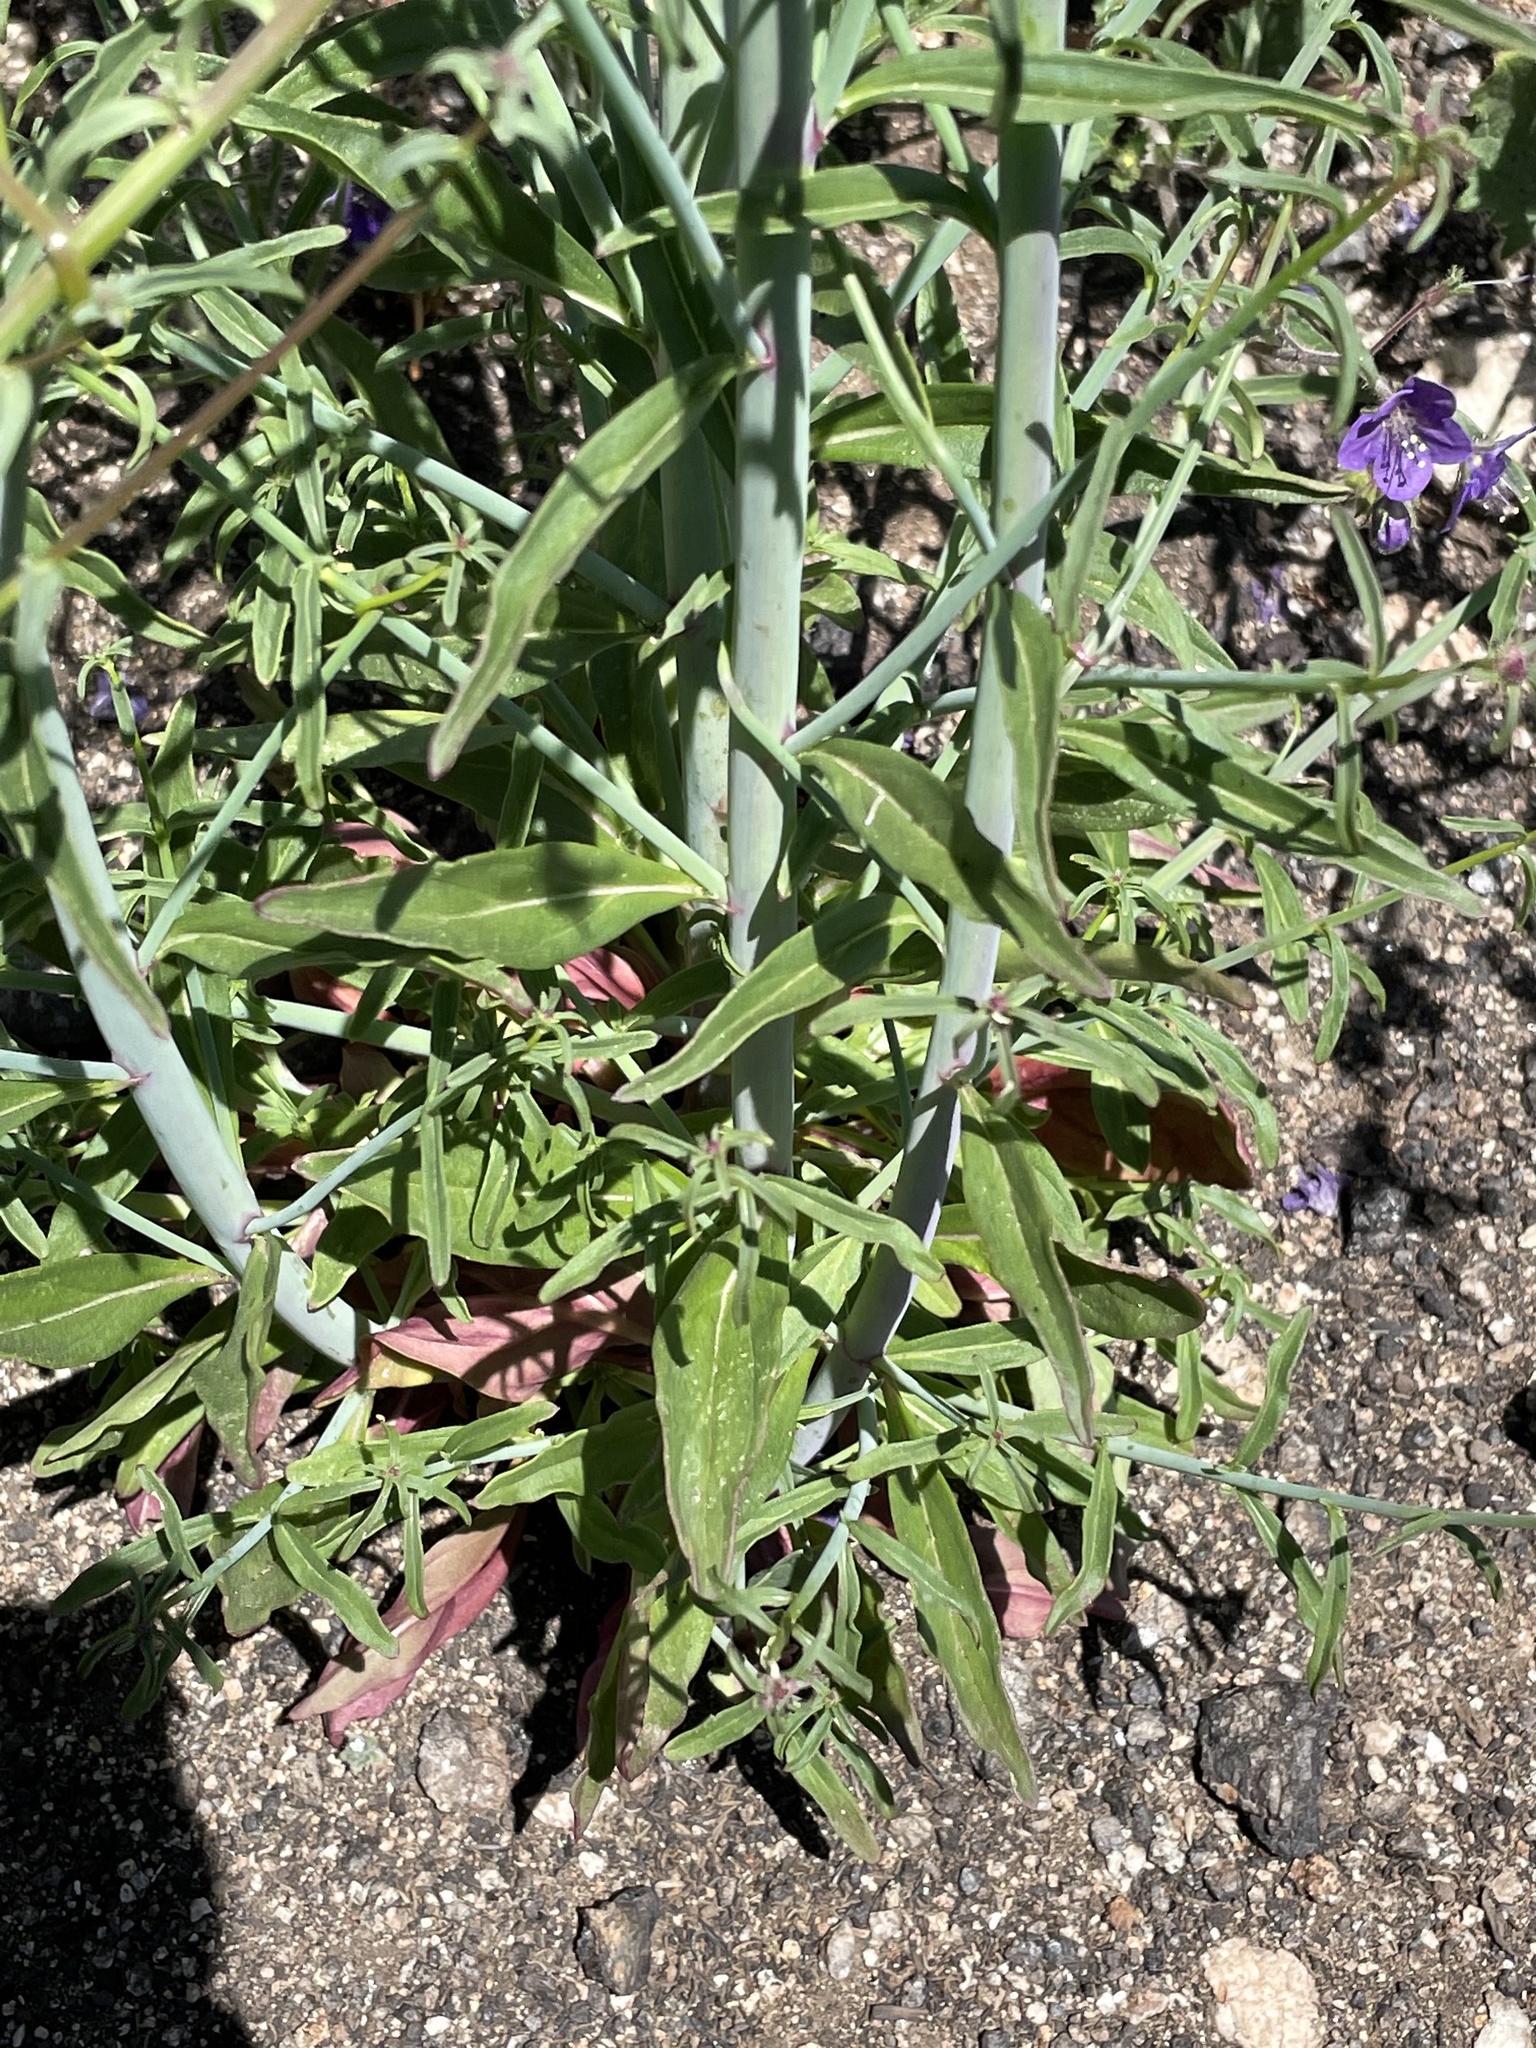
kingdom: Plantae
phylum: Tracheophyta
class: Magnoliopsida
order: Lamiales
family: Plantaginaceae
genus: Sairocarpus
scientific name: Sairocarpus coulterianus
